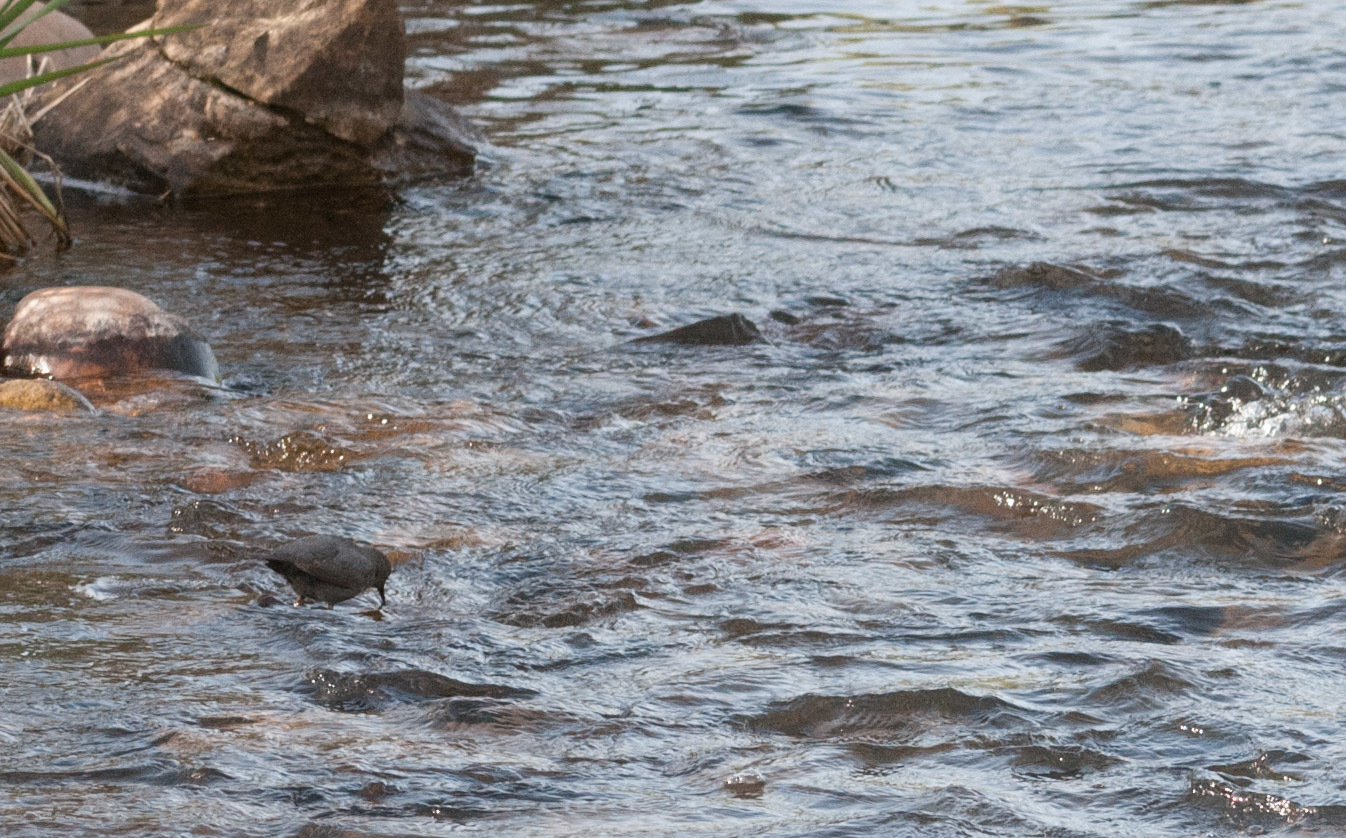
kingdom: Animalia
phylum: Chordata
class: Aves
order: Passeriformes
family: Cinclidae
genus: Cinclus
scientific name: Cinclus mexicanus
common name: American dipper
